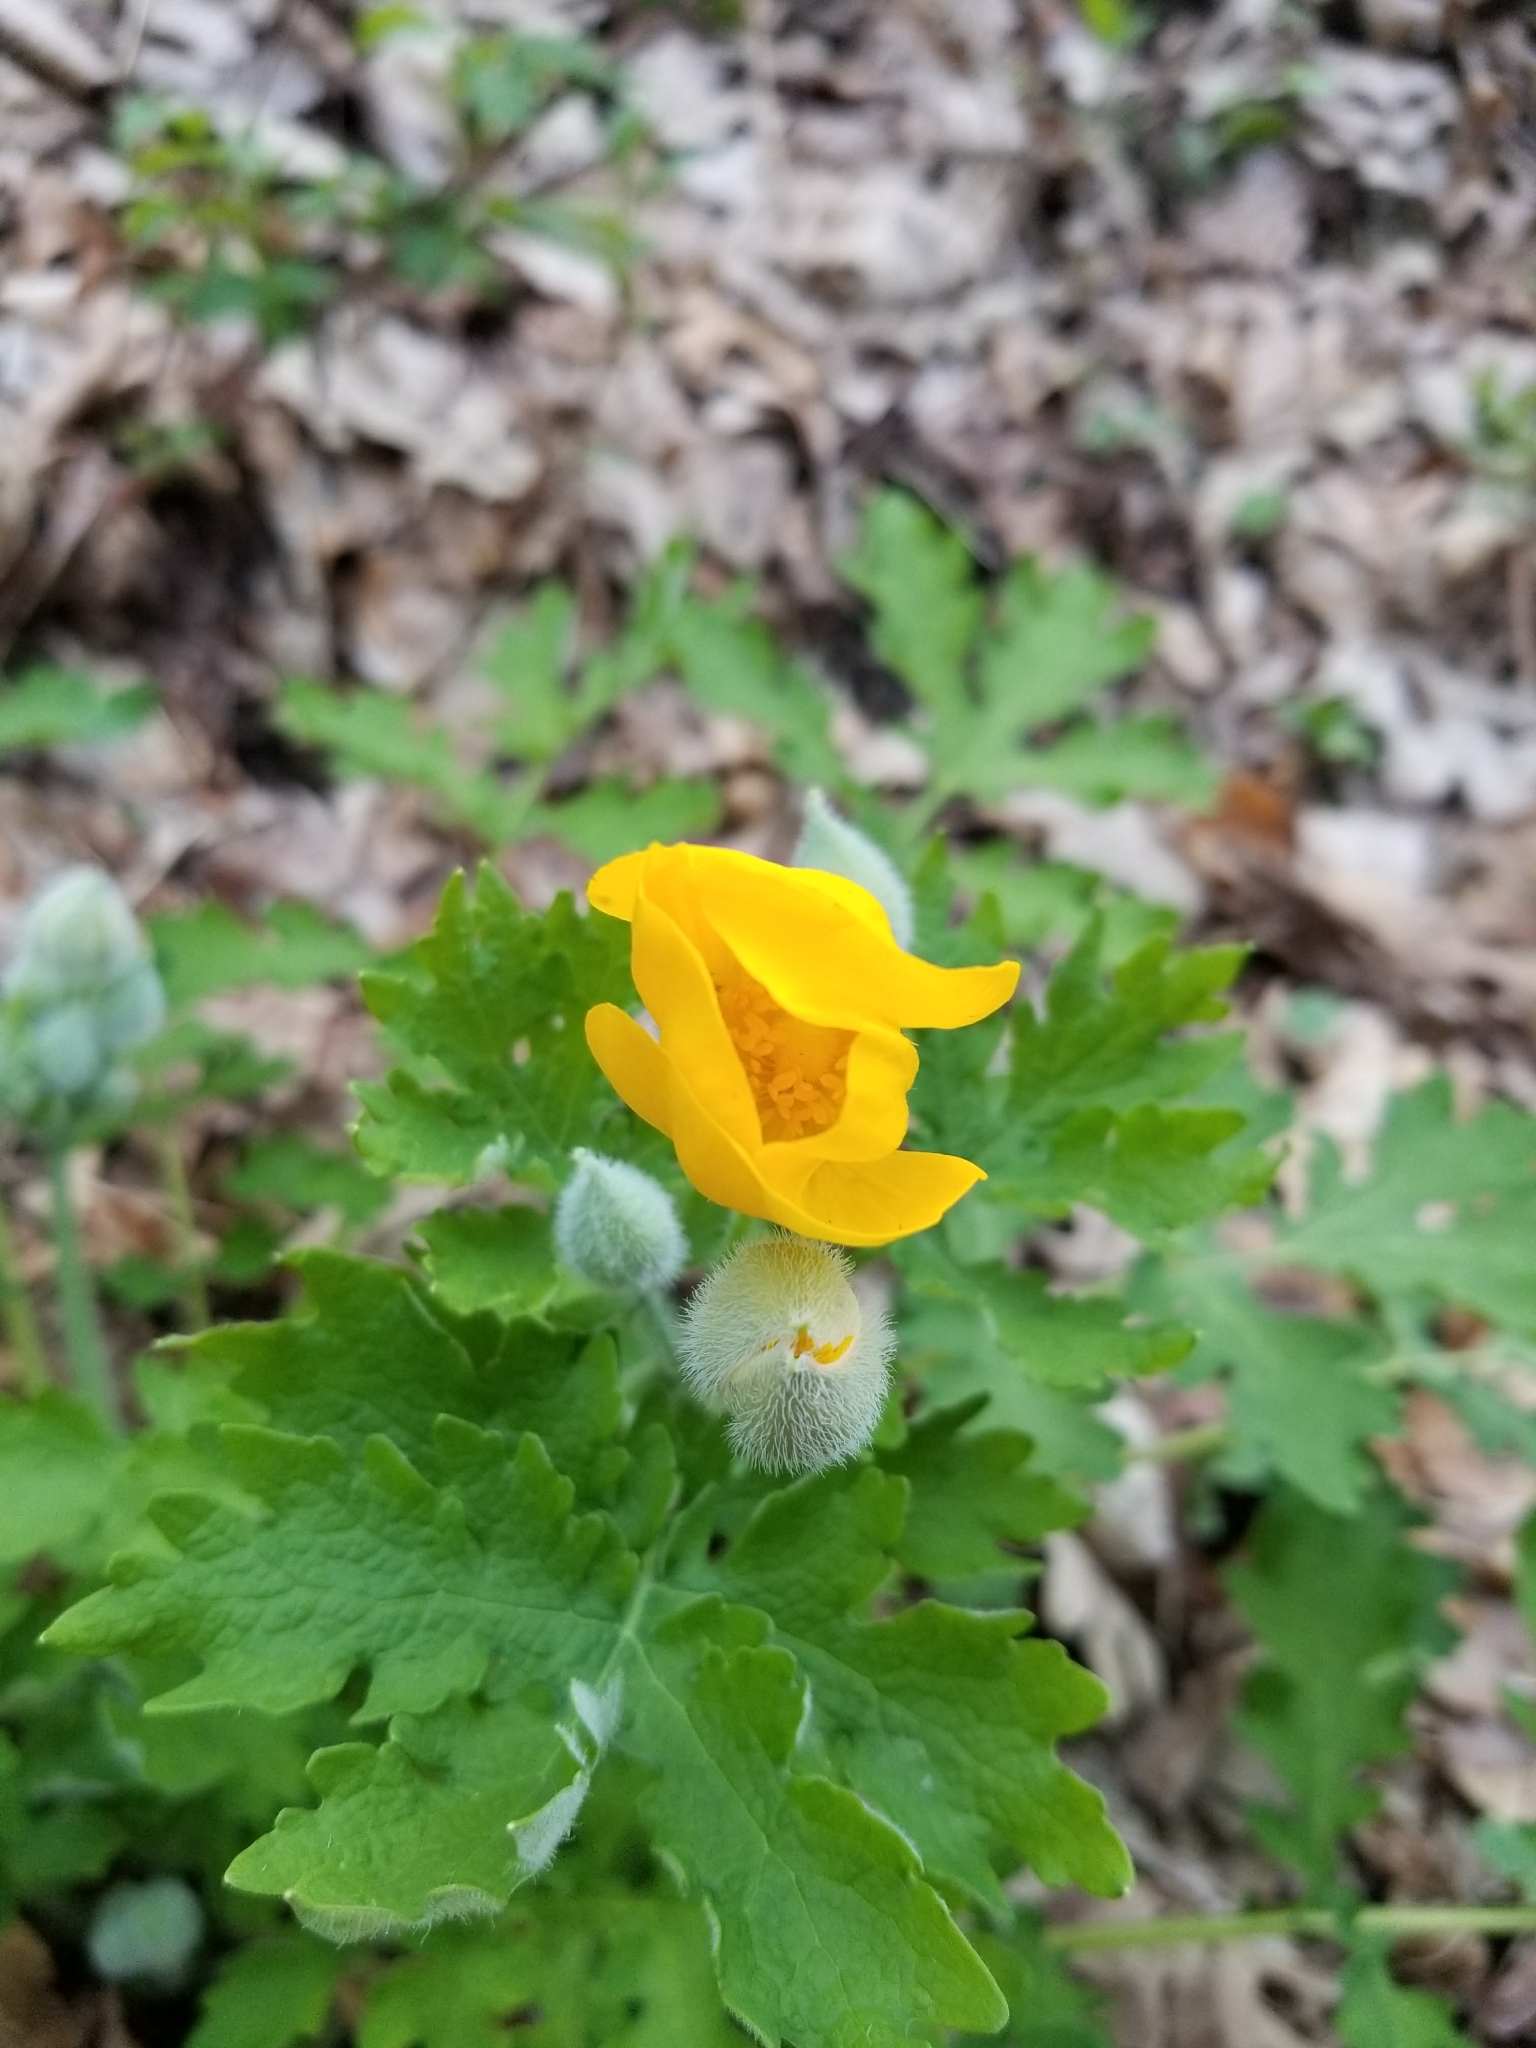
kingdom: Plantae
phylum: Tracheophyta
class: Magnoliopsida
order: Ranunculales
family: Papaveraceae
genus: Stylophorum
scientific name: Stylophorum diphyllum
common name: Celandine poppy
